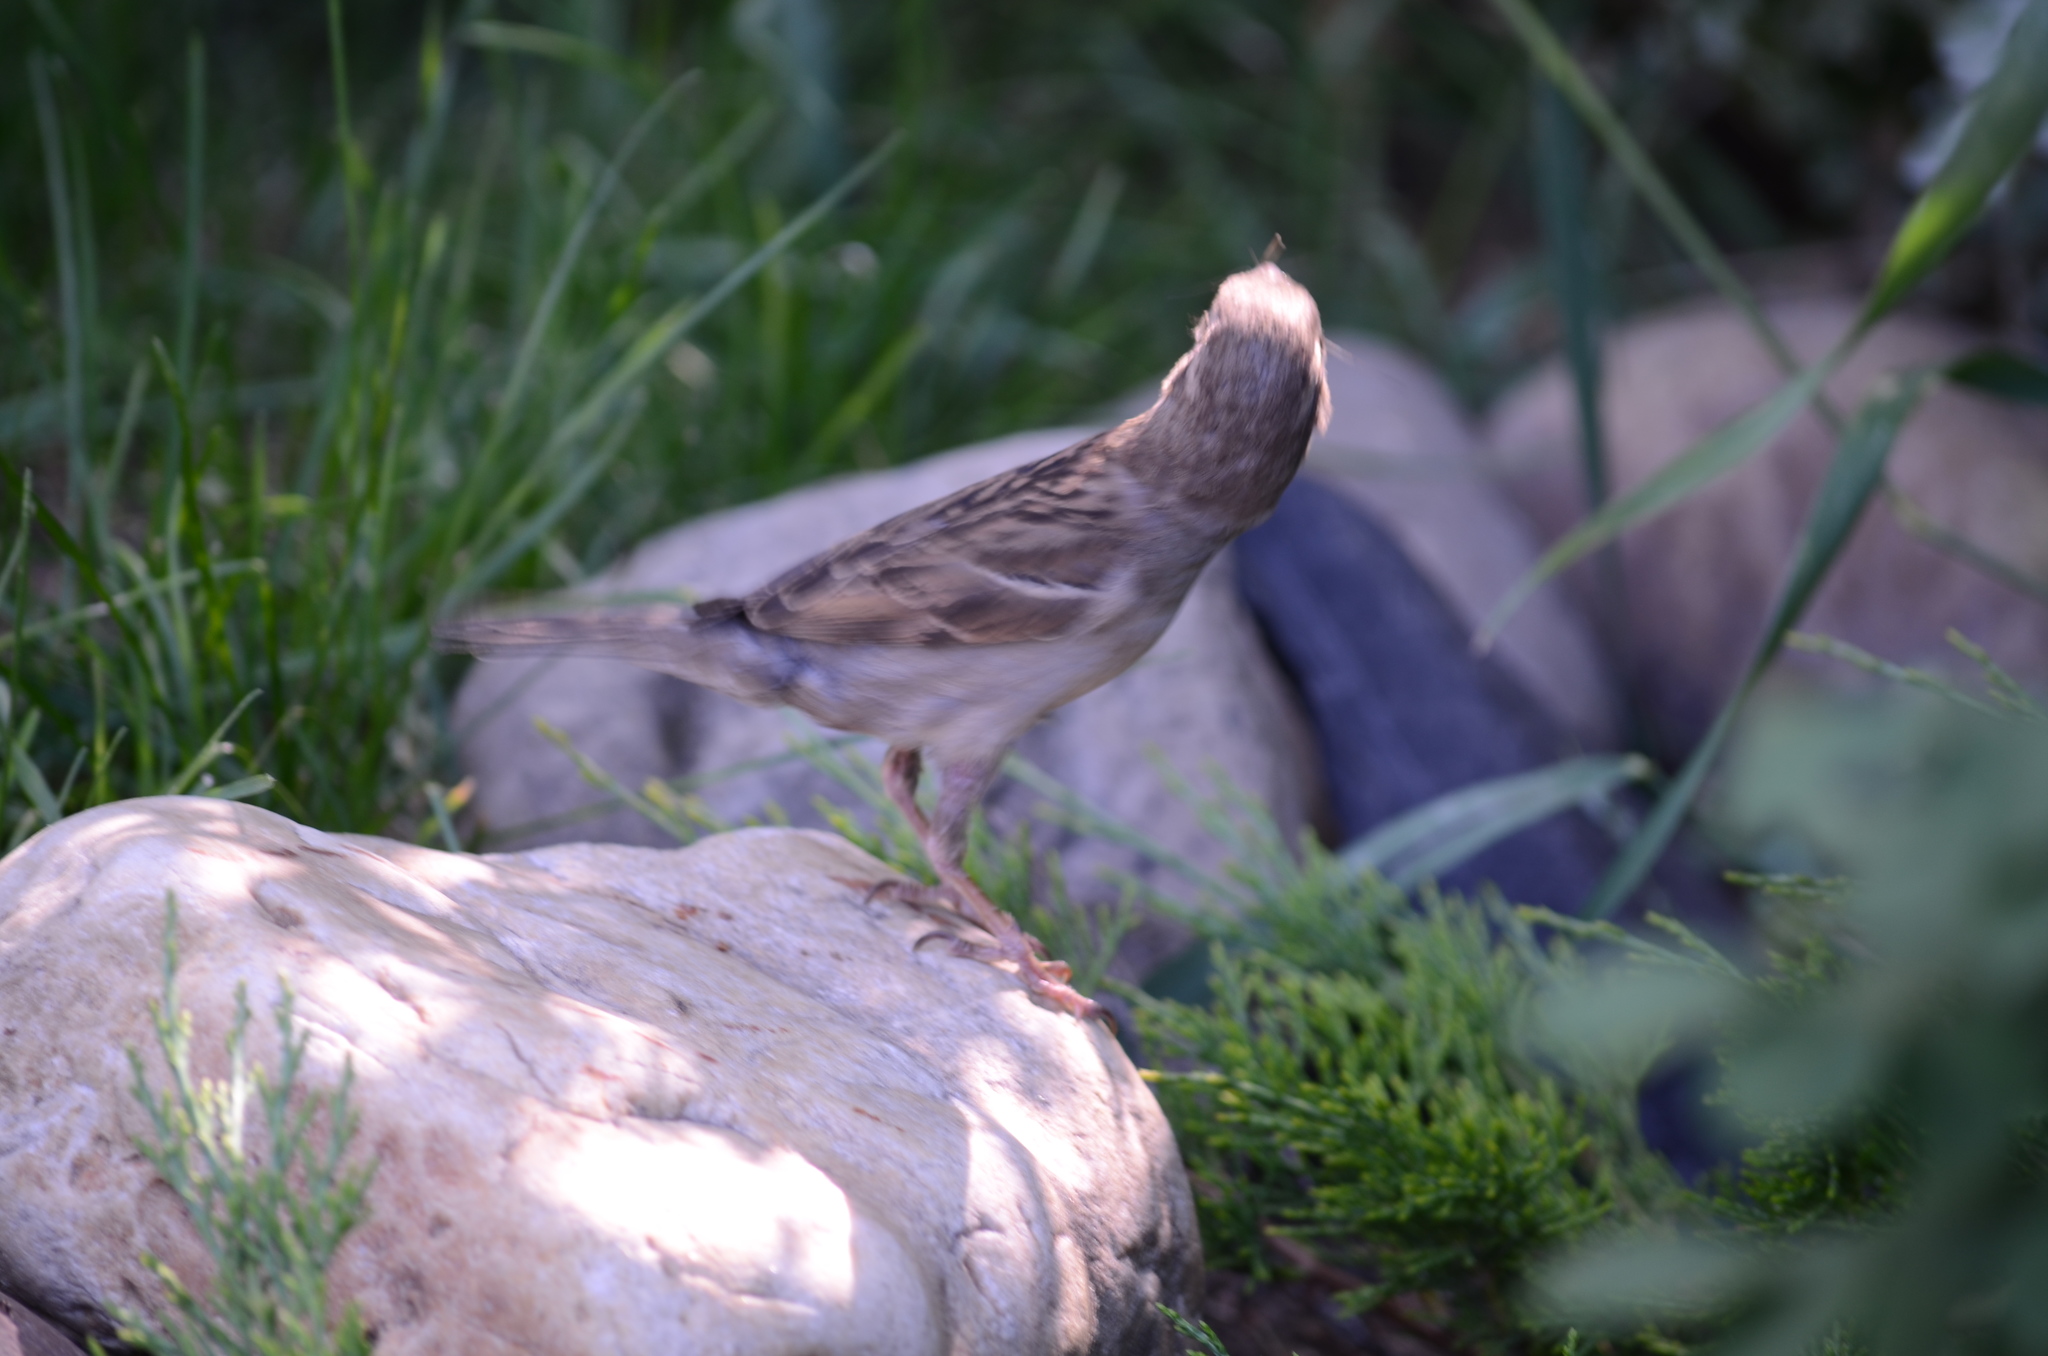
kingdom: Animalia
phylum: Chordata
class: Aves
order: Passeriformes
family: Passeridae
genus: Passer
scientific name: Passer domesticus
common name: House sparrow
